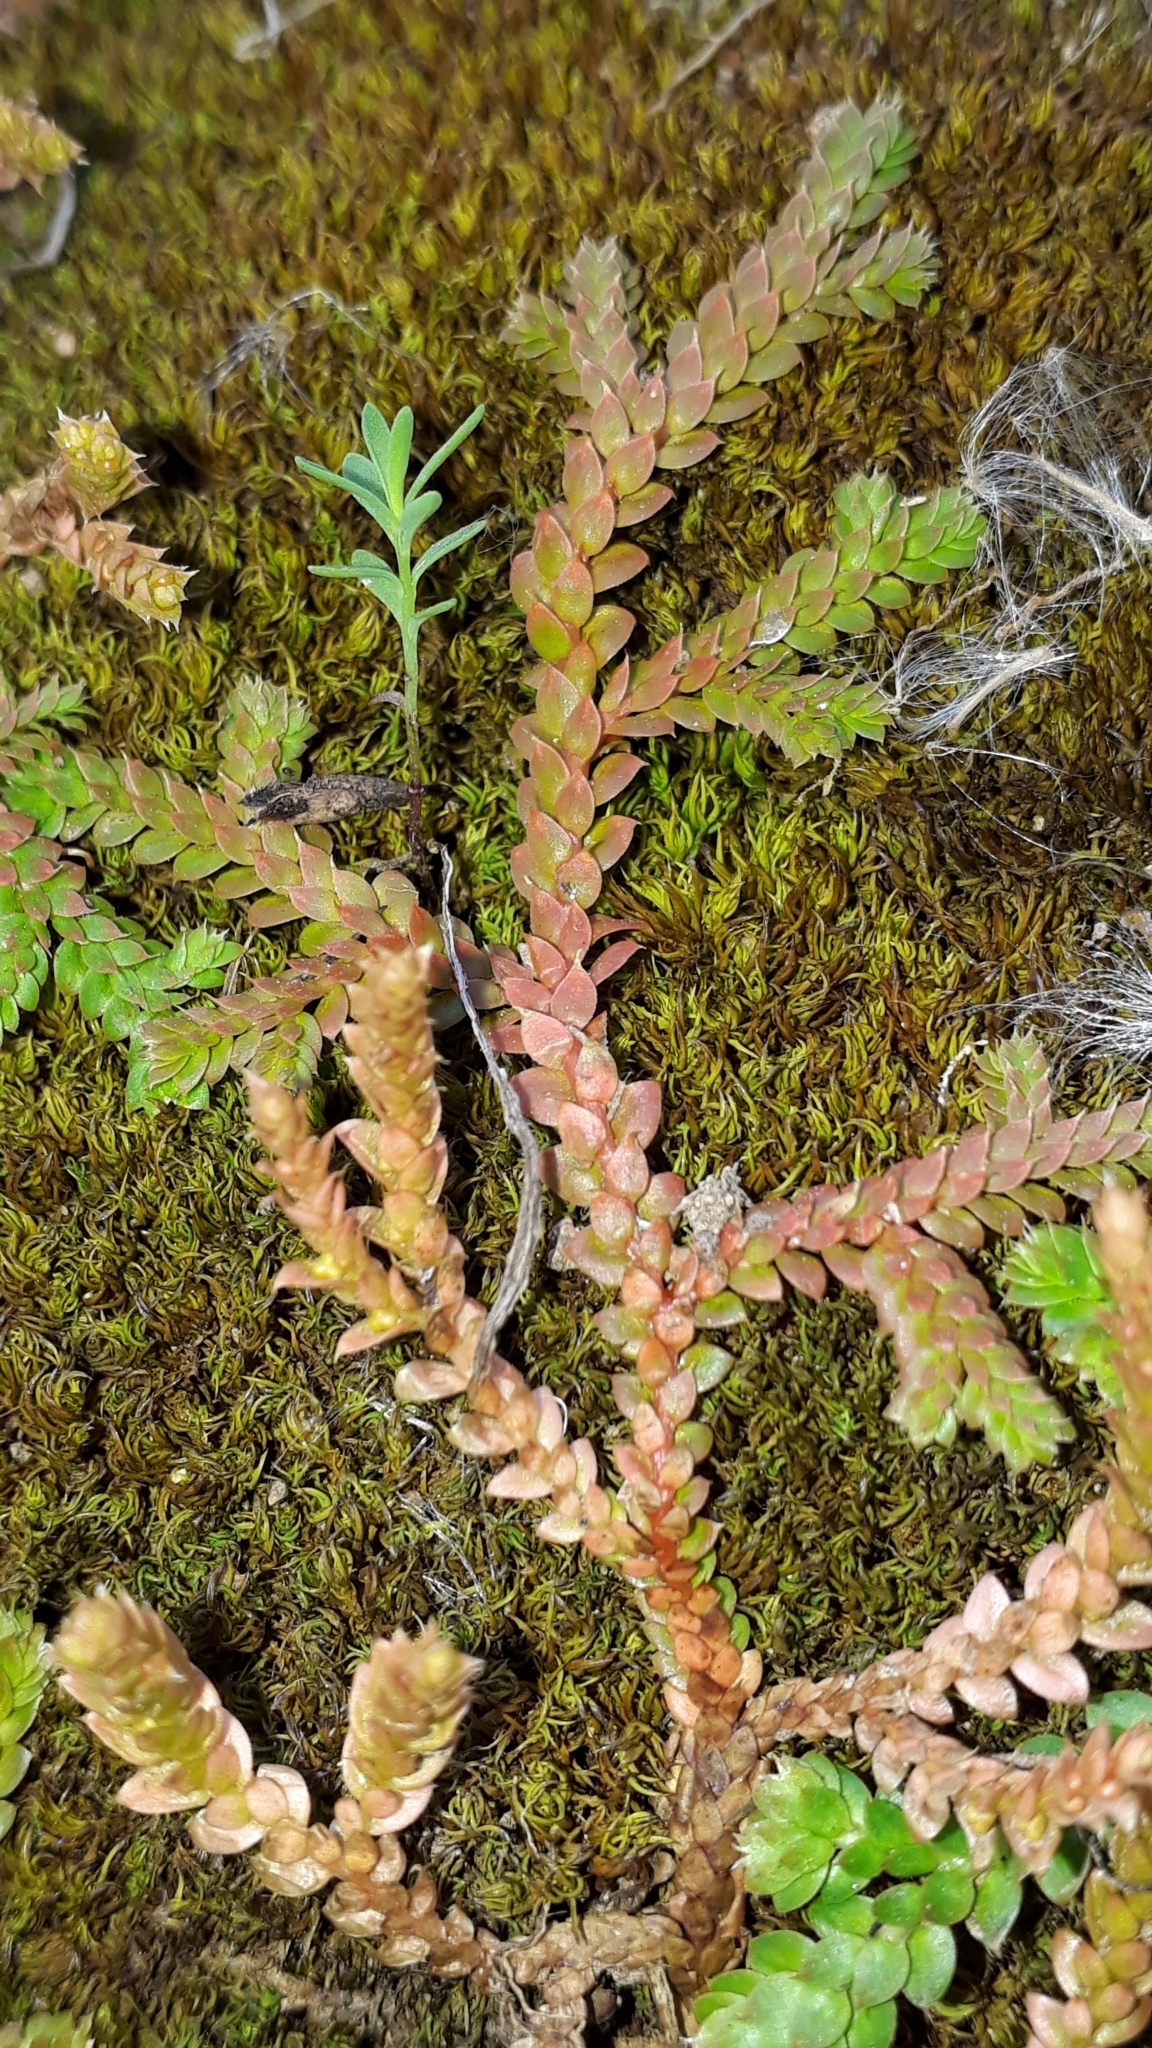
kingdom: Plantae
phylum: Tracheophyta
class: Lycopodiopsida
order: Selaginellales
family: Selaginellaceae
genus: Selaginella
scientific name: Selaginella denticulata
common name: Toothed-leaved clubmoss
